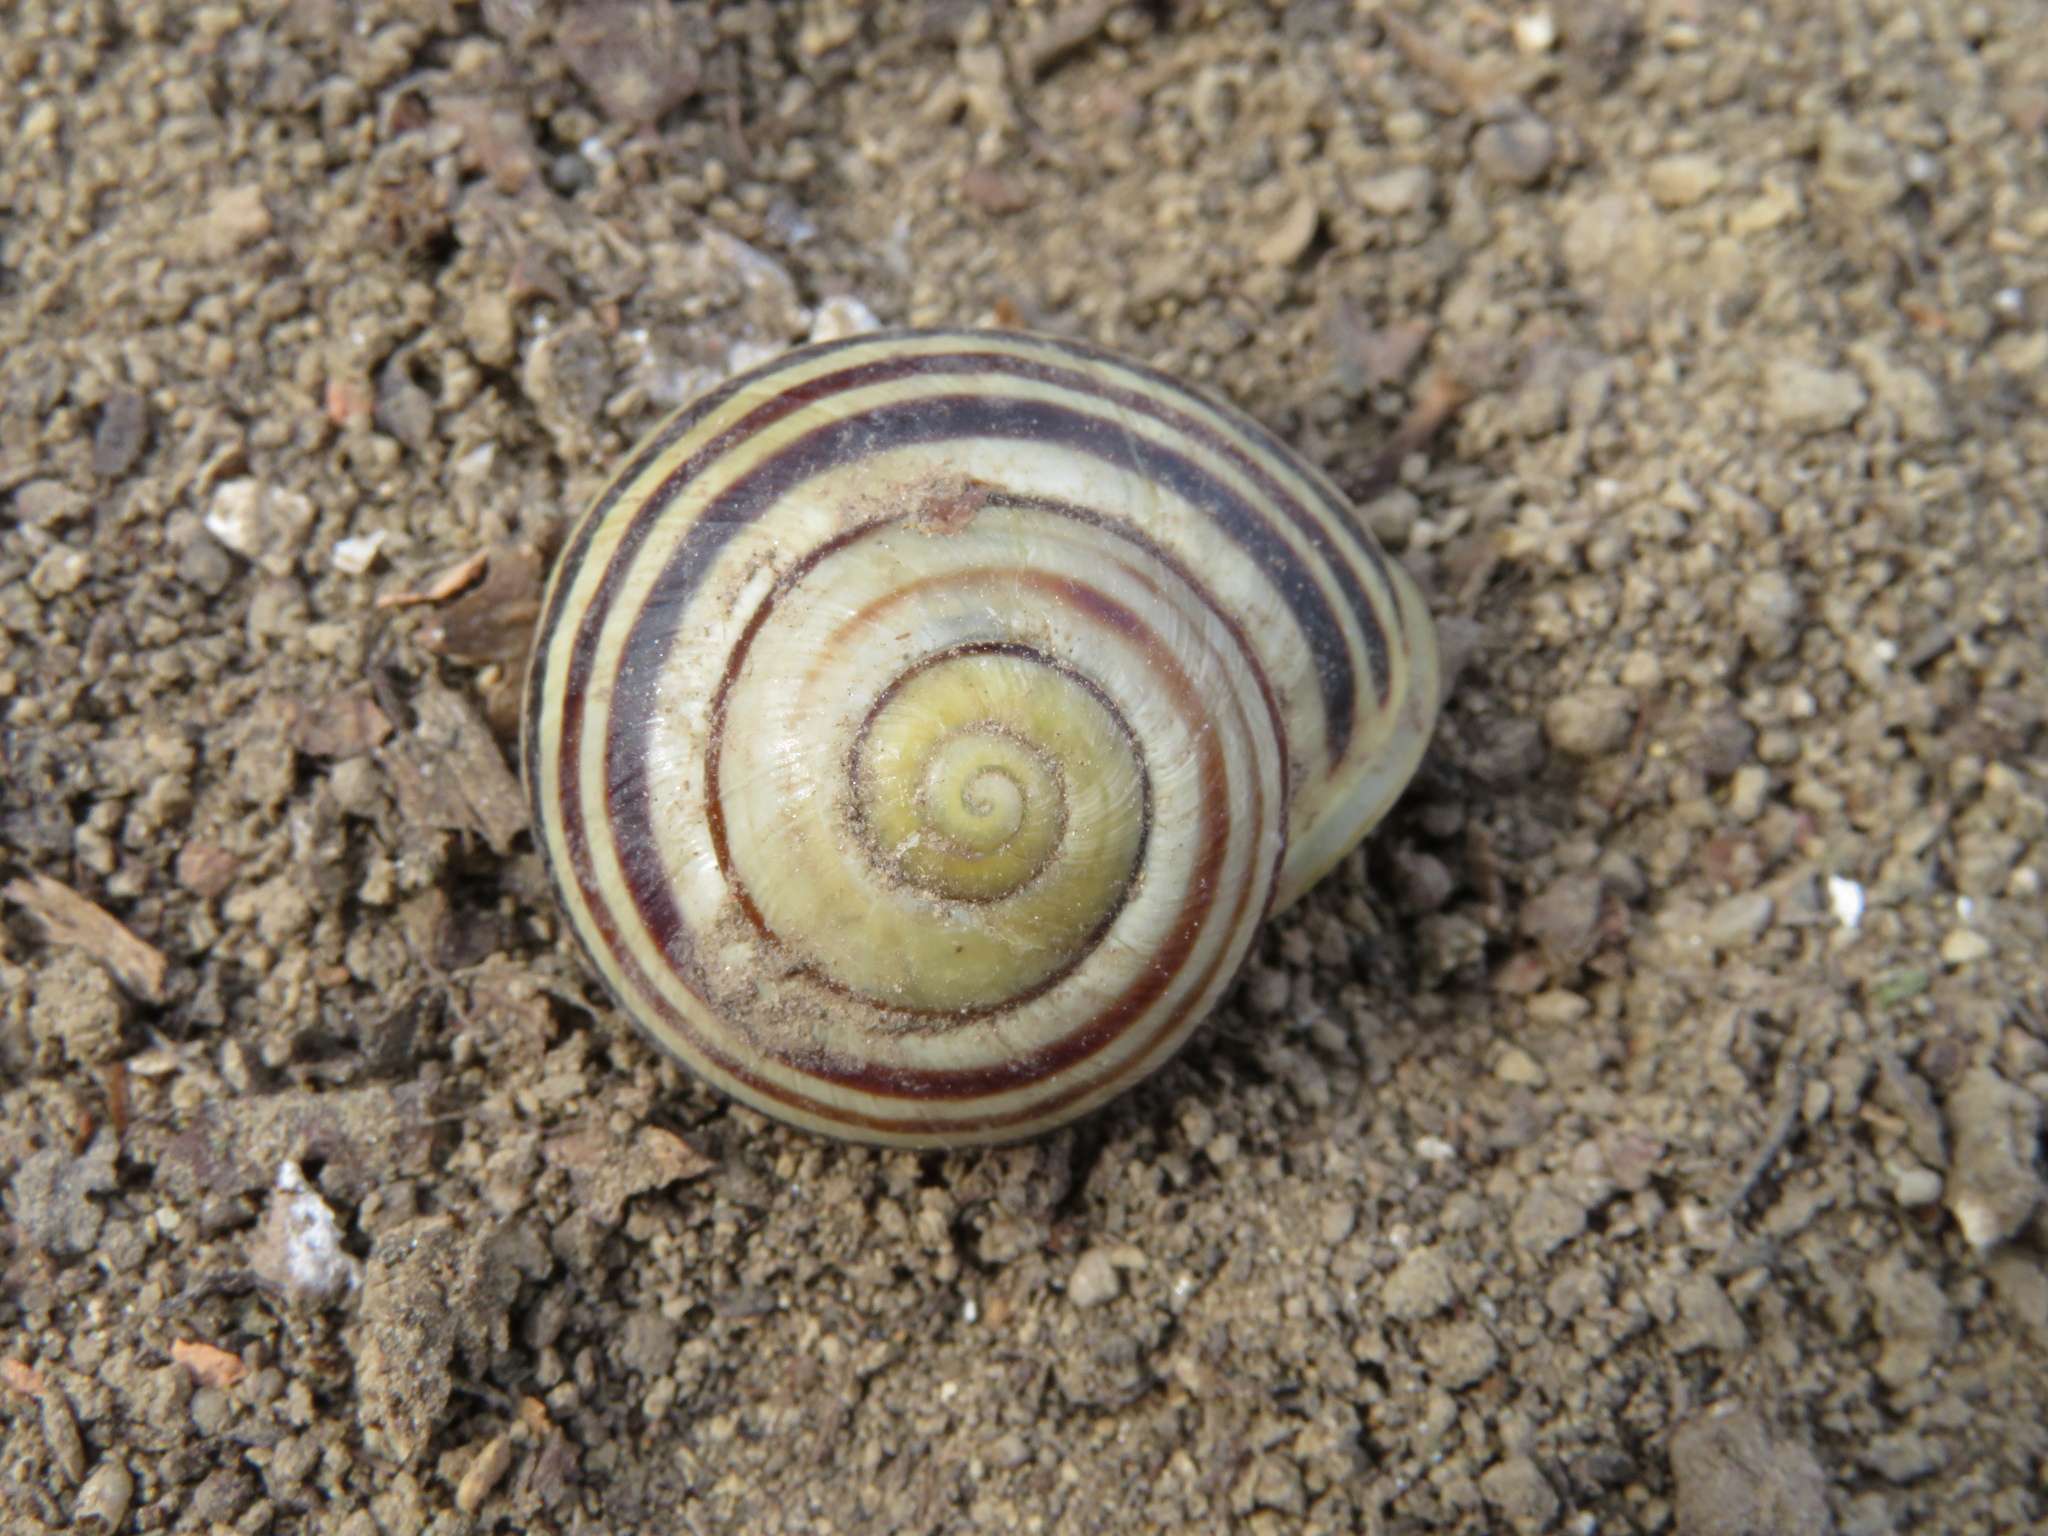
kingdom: Animalia
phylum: Mollusca
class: Gastropoda
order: Stylommatophora
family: Helicidae
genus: Cepaea
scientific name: Cepaea hortensis
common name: White-lip gardensnail
